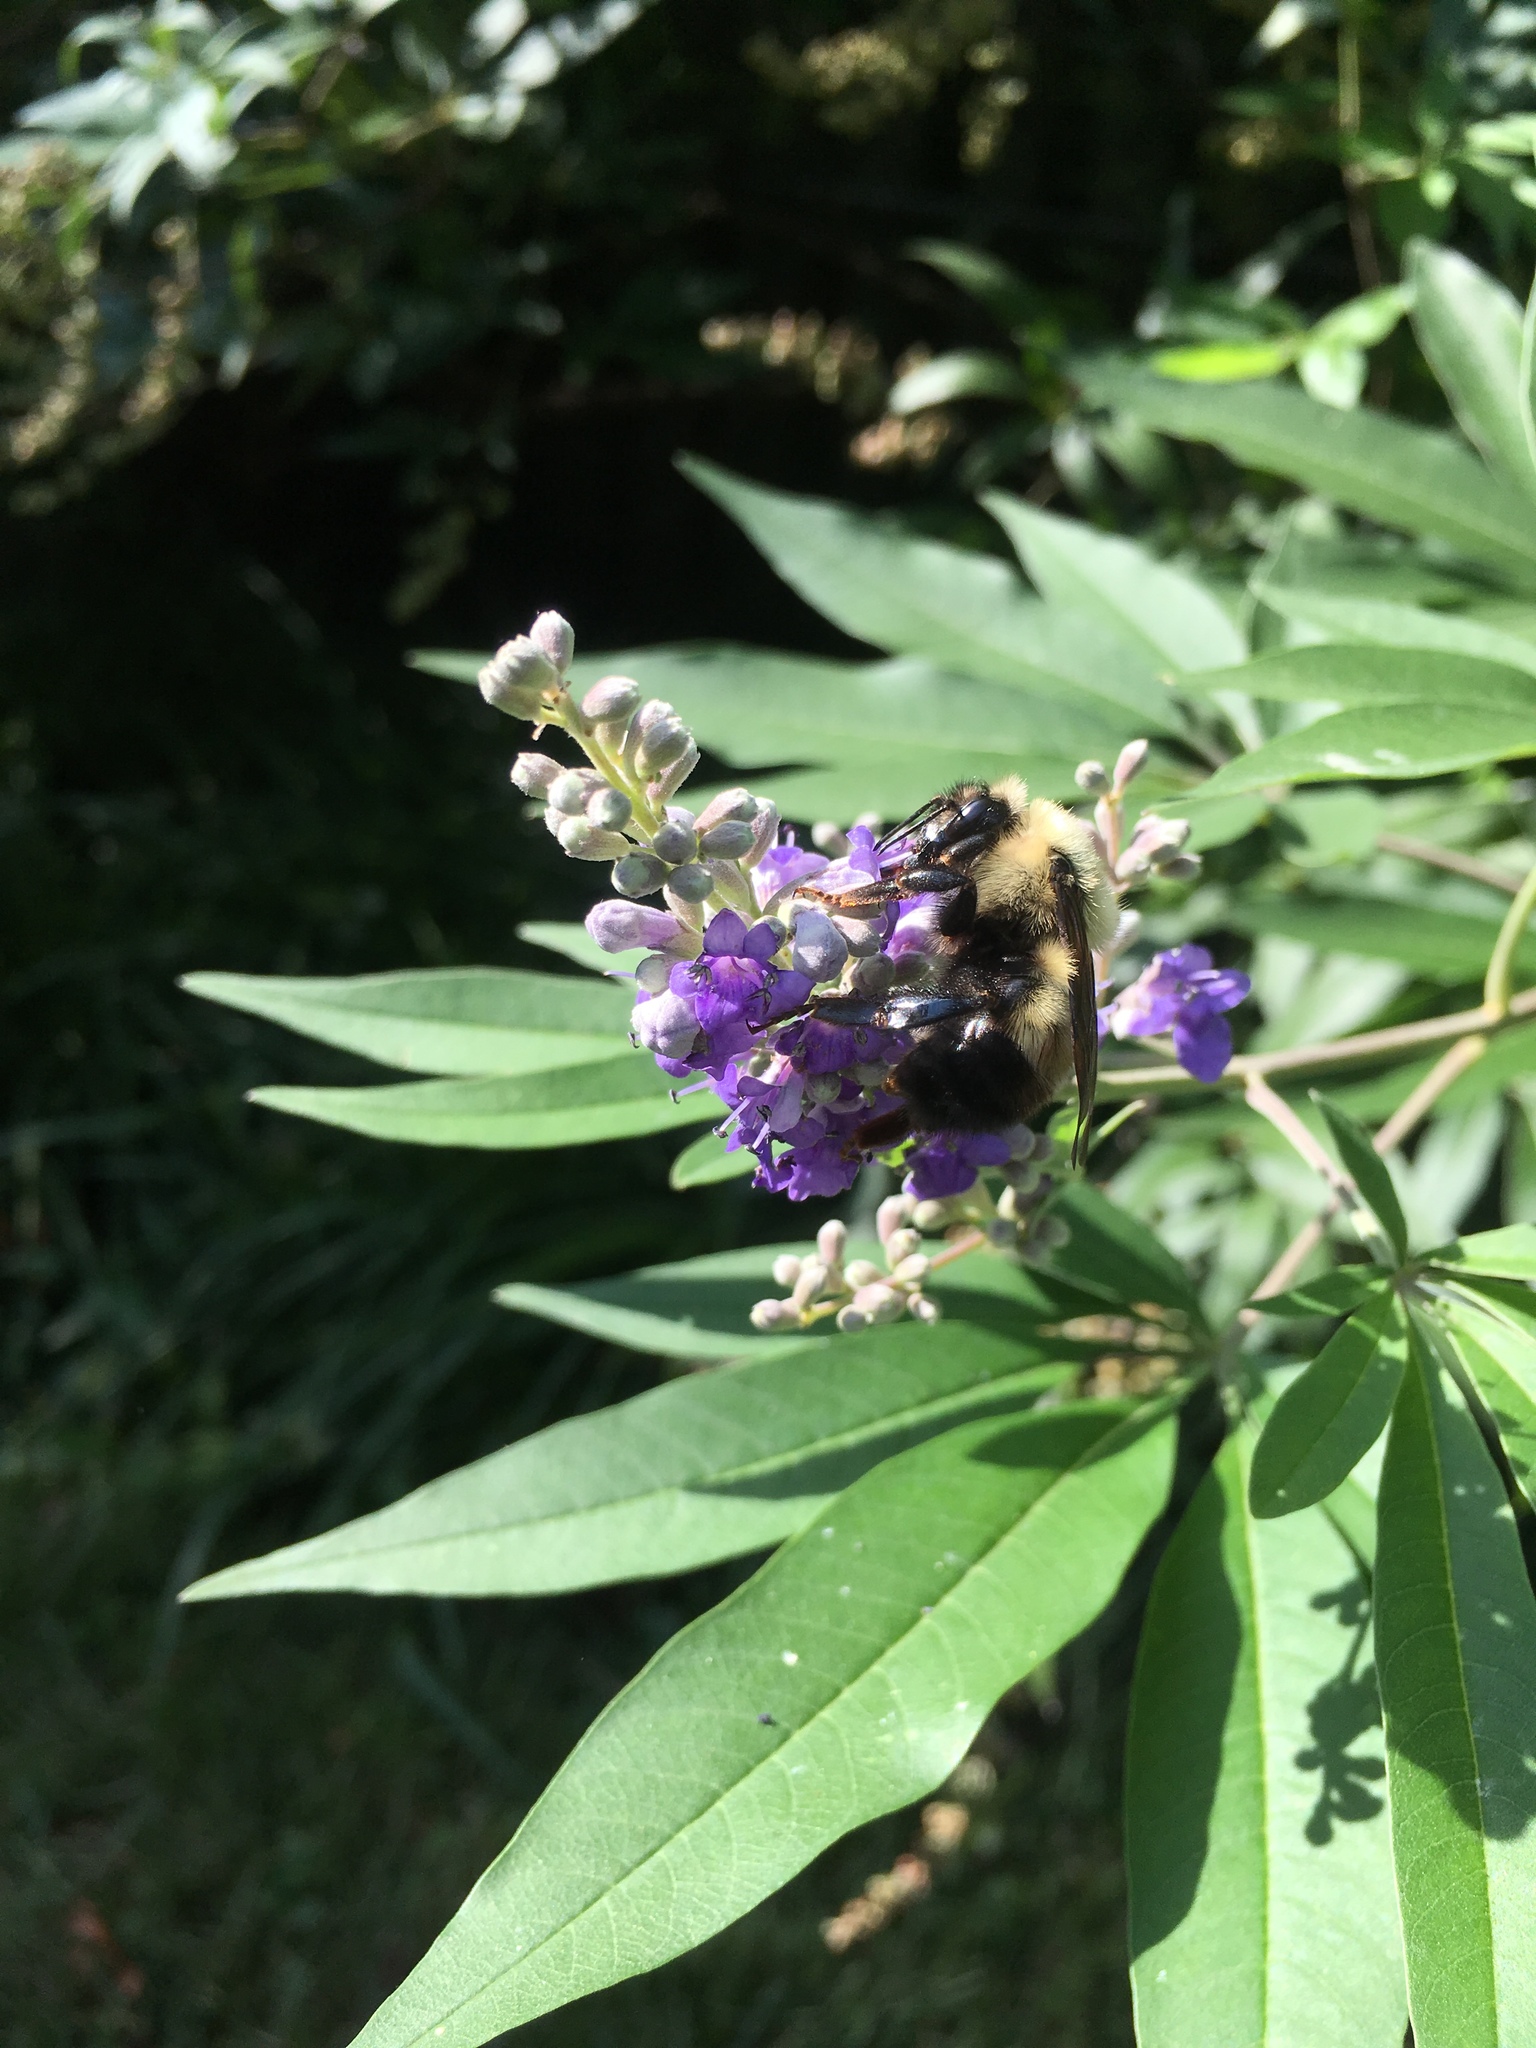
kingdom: Animalia
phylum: Arthropoda
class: Insecta
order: Hymenoptera
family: Apidae
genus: Pyrobombus
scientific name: Pyrobombus
